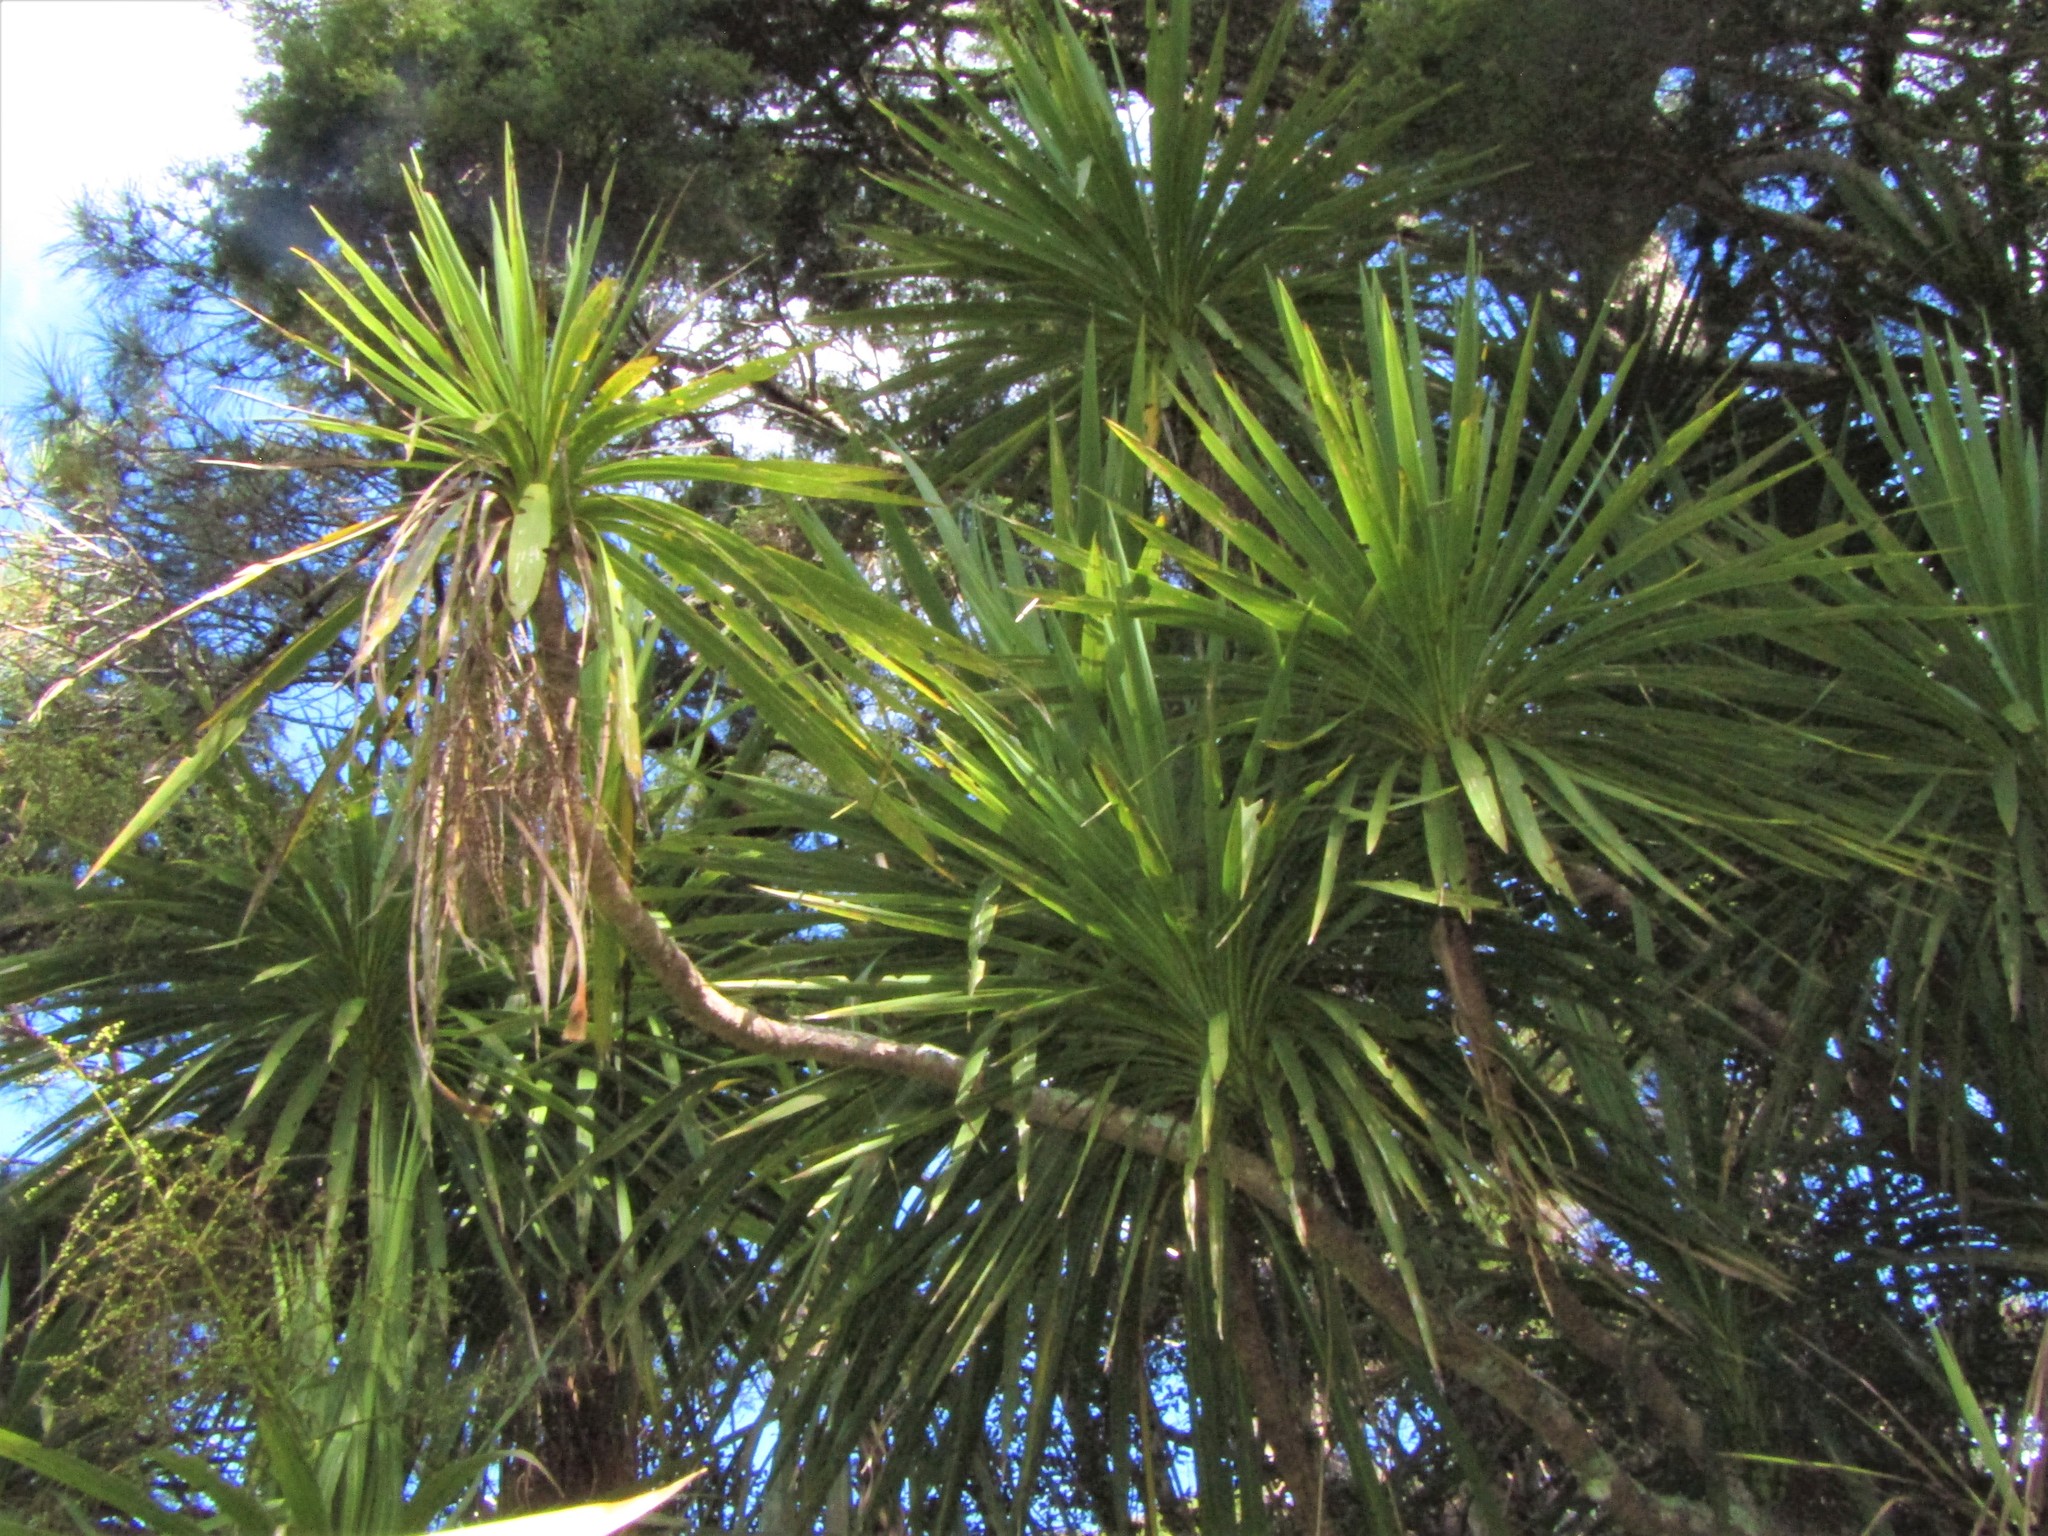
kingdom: Plantae
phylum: Tracheophyta
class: Liliopsida
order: Asparagales
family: Asparagaceae
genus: Cordyline
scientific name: Cordyline australis
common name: Cabbage-palm
